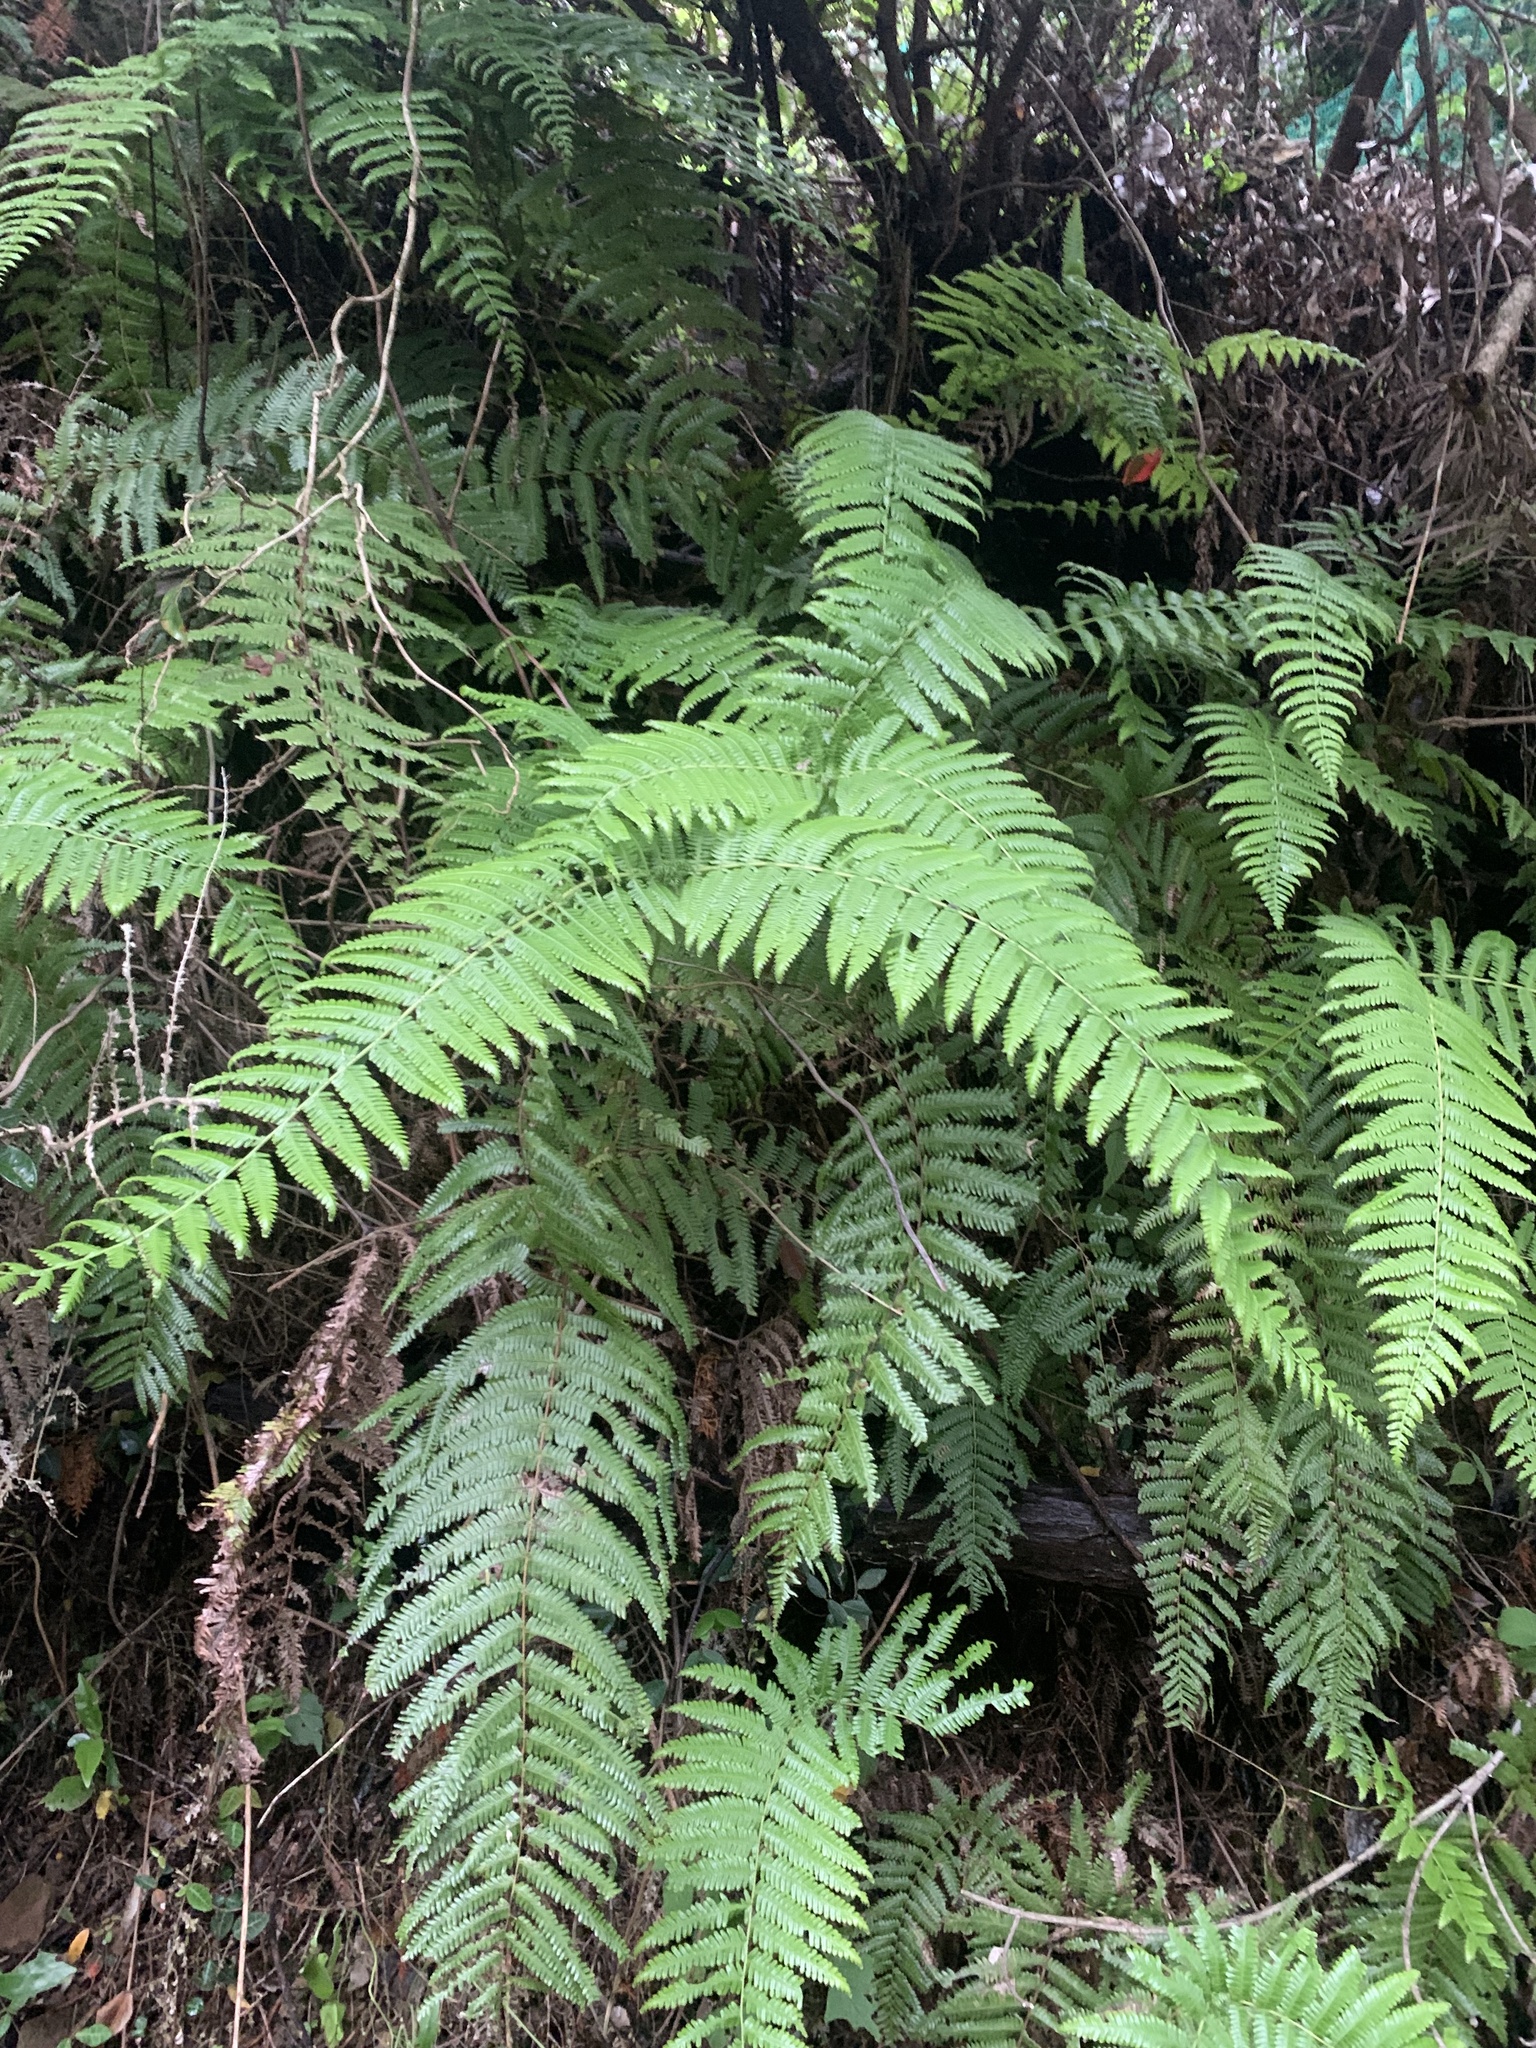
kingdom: Plantae
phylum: Tracheophyta
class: Polypodiopsida
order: Gleicheniales
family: Gleicheniaceae
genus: Diplopterygium
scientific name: Diplopterygium glaucum
